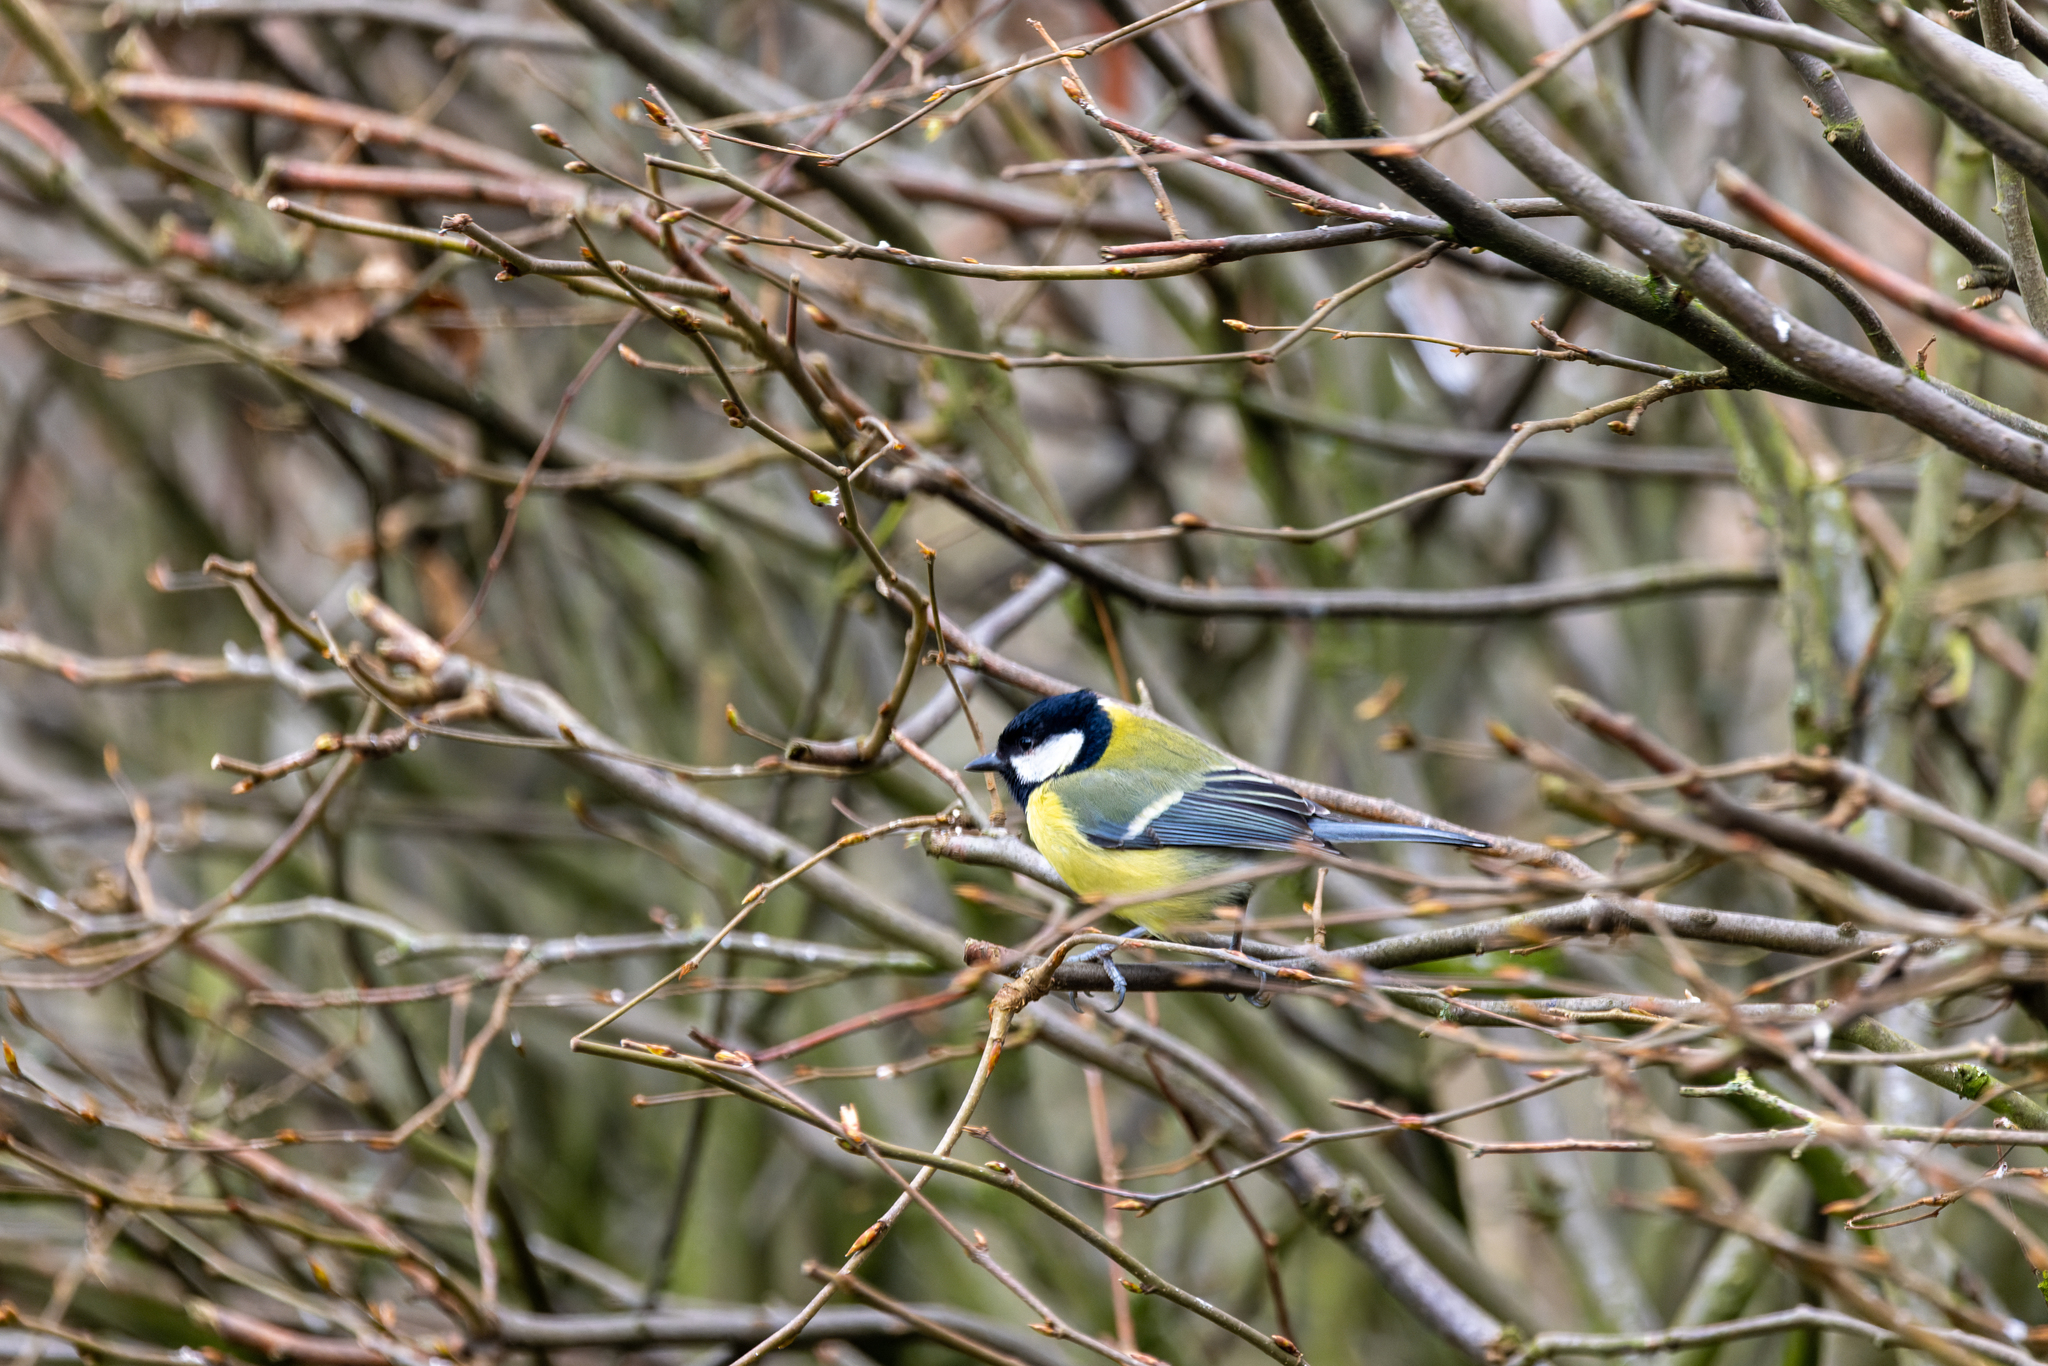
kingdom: Animalia
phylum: Chordata
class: Aves
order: Passeriformes
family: Paridae
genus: Parus
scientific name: Parus major
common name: Great tit
